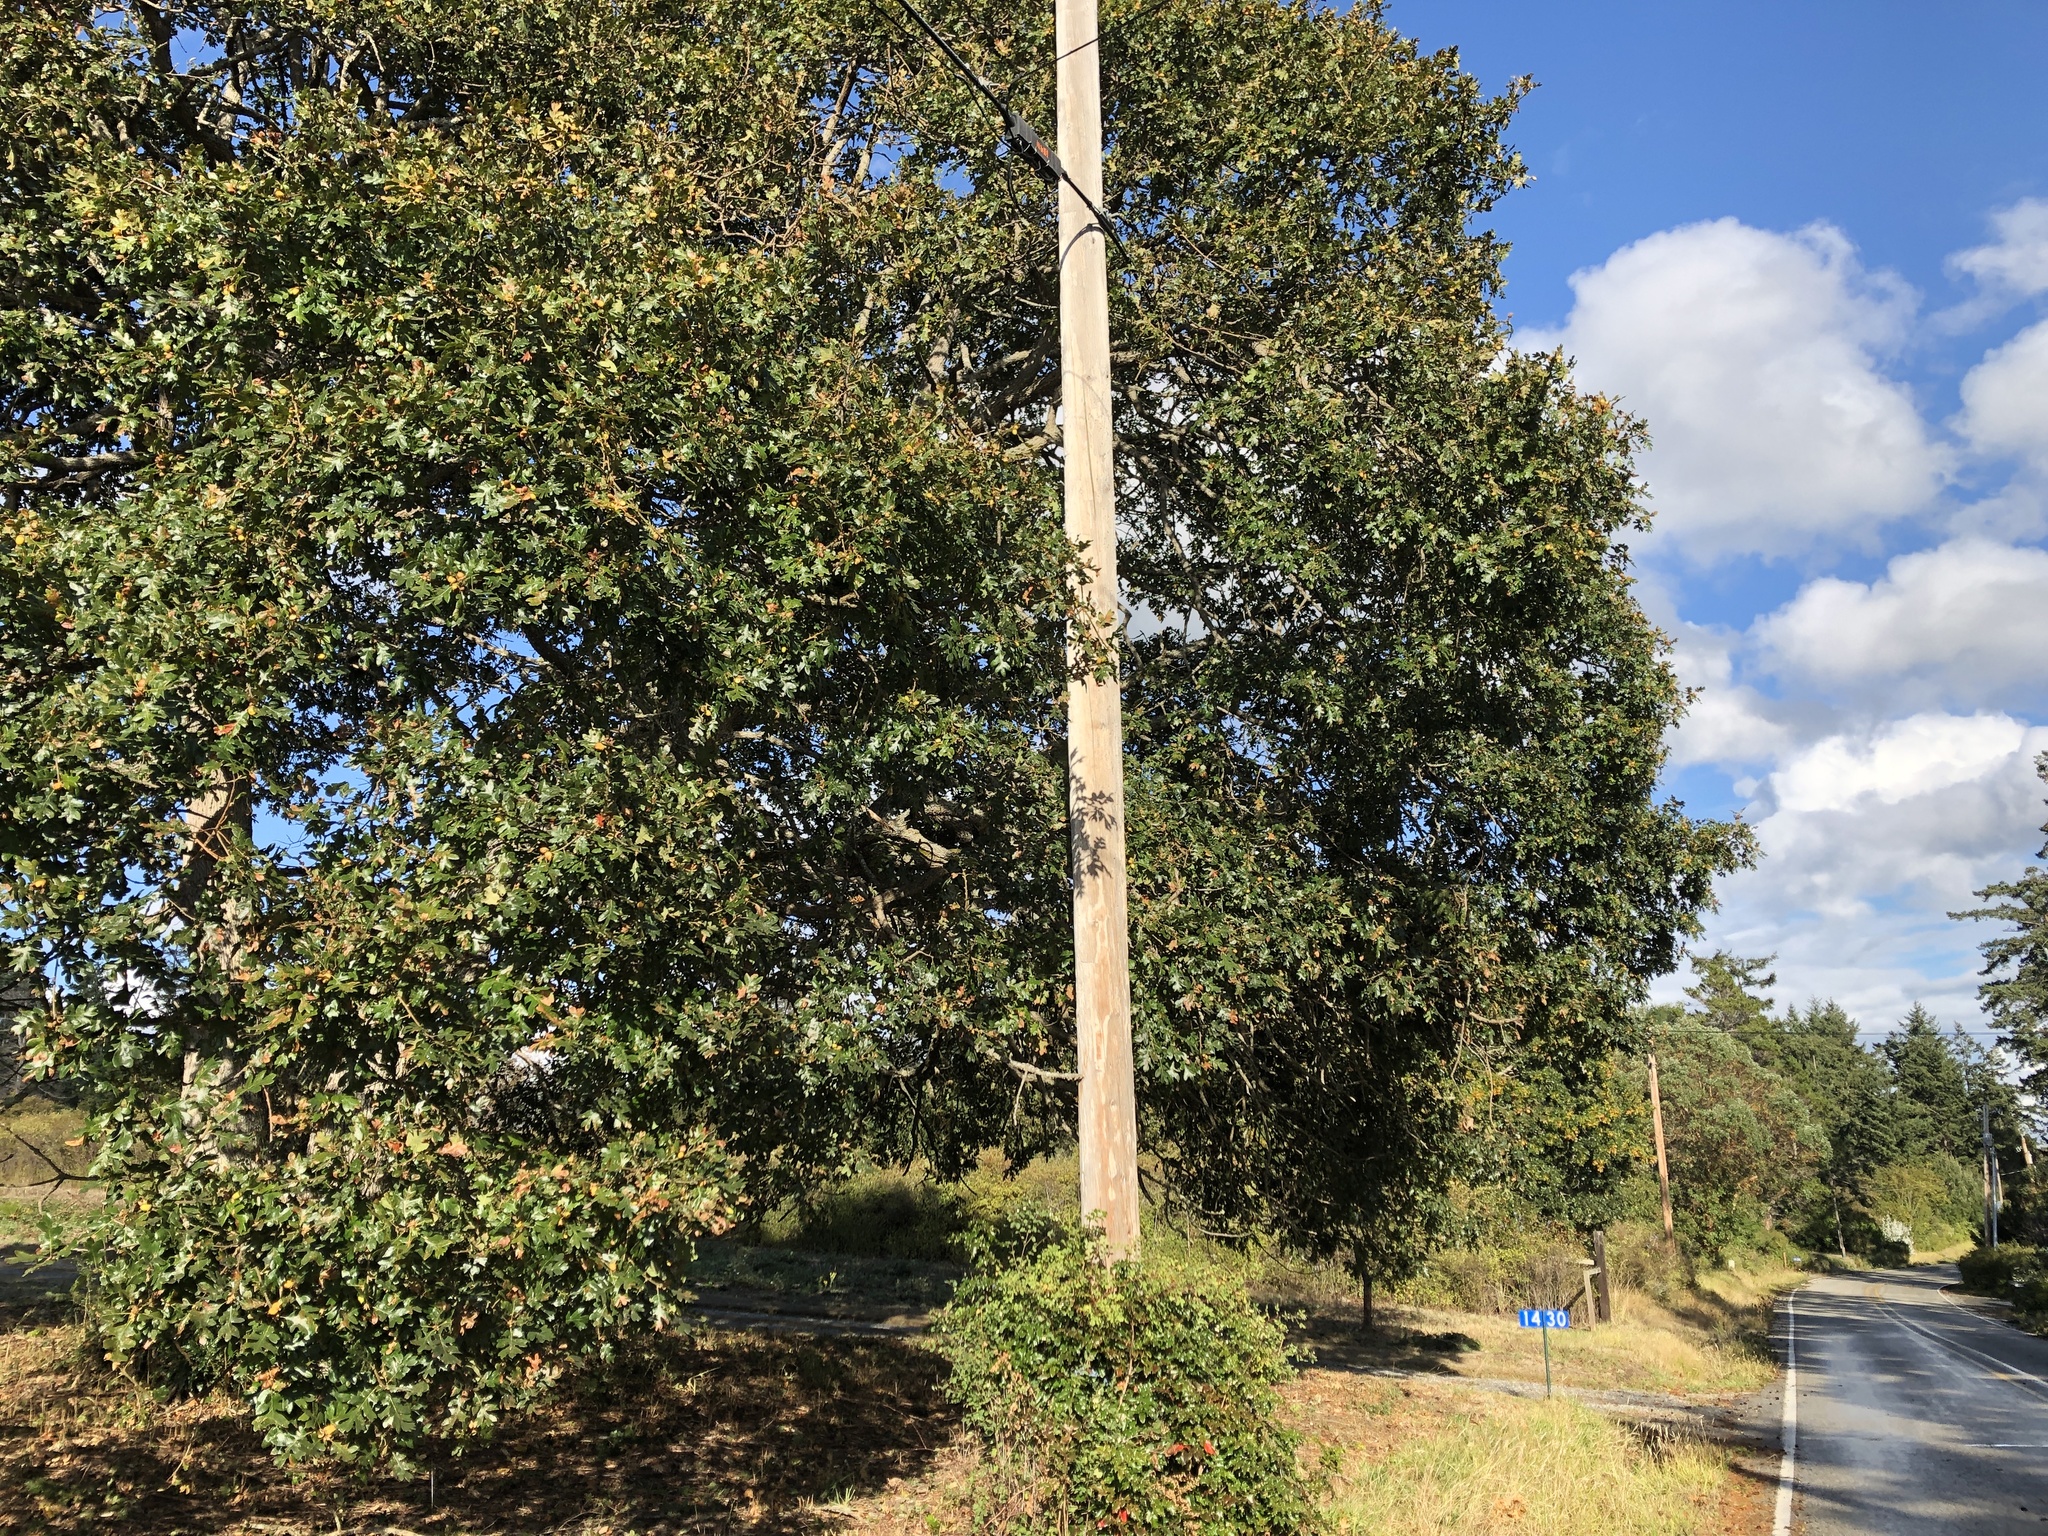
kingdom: Plantae
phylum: Tracheophyta
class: Magnoliopsida
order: Fagales
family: Fagaceae
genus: Quercus
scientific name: Quercus garryana
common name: Garry oak
